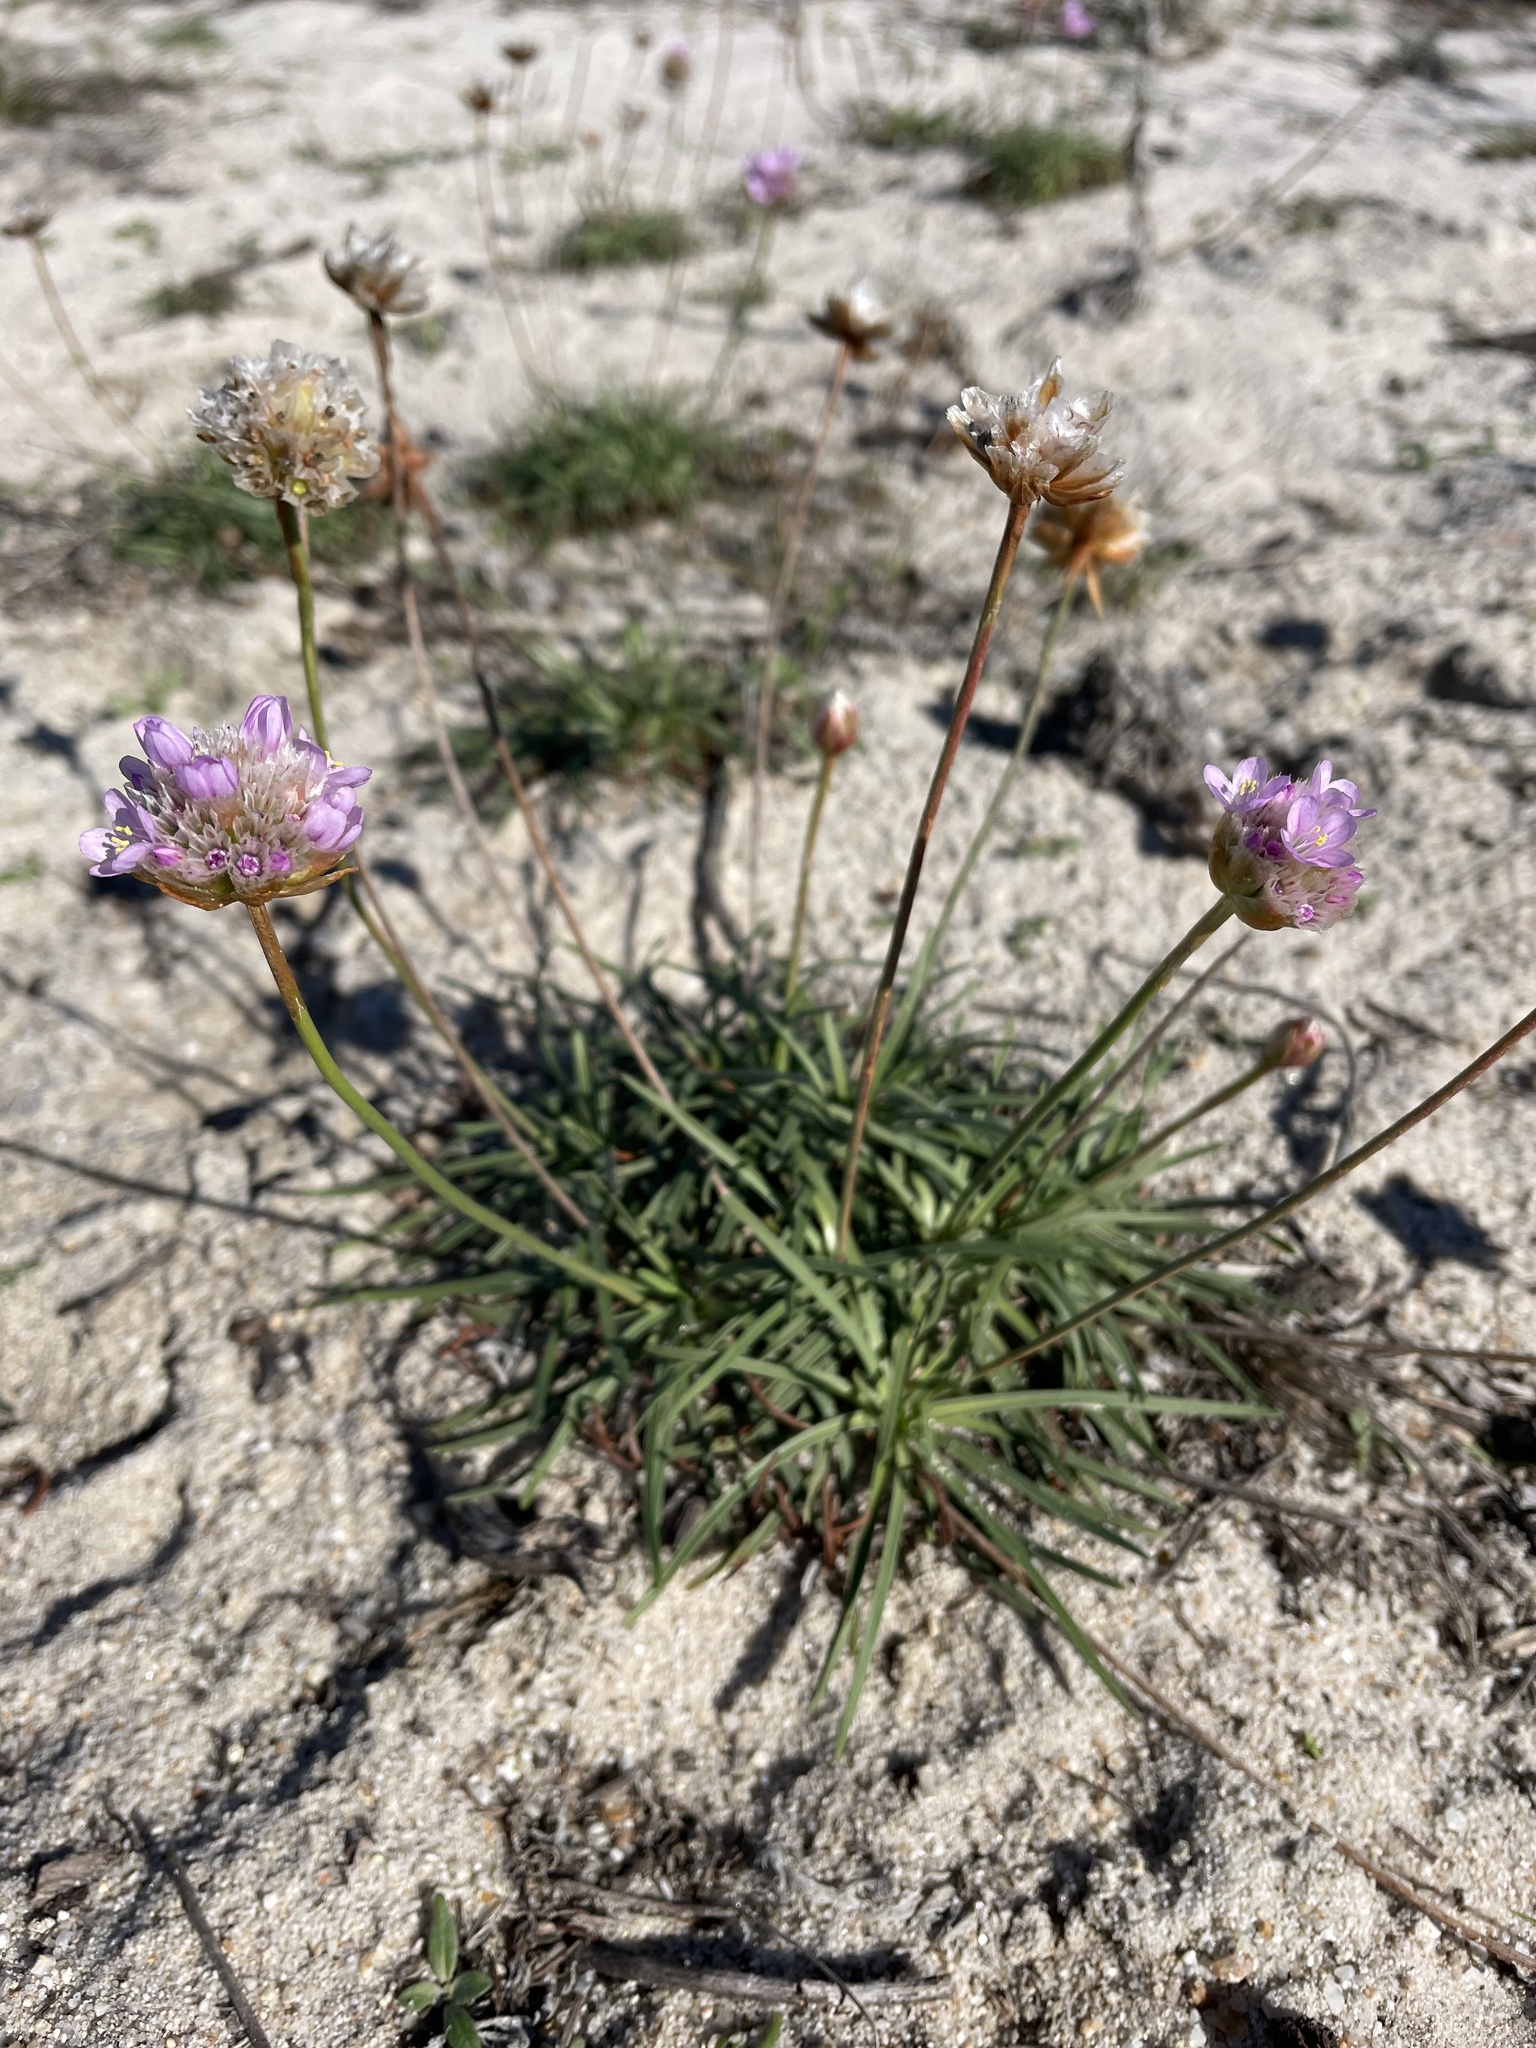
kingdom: Plantae
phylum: Tracheophyta
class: Magnoliopsida
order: Caryophyllales
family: Plumbaginaceae
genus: Armeria
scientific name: Armeria maritima
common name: Thrift
